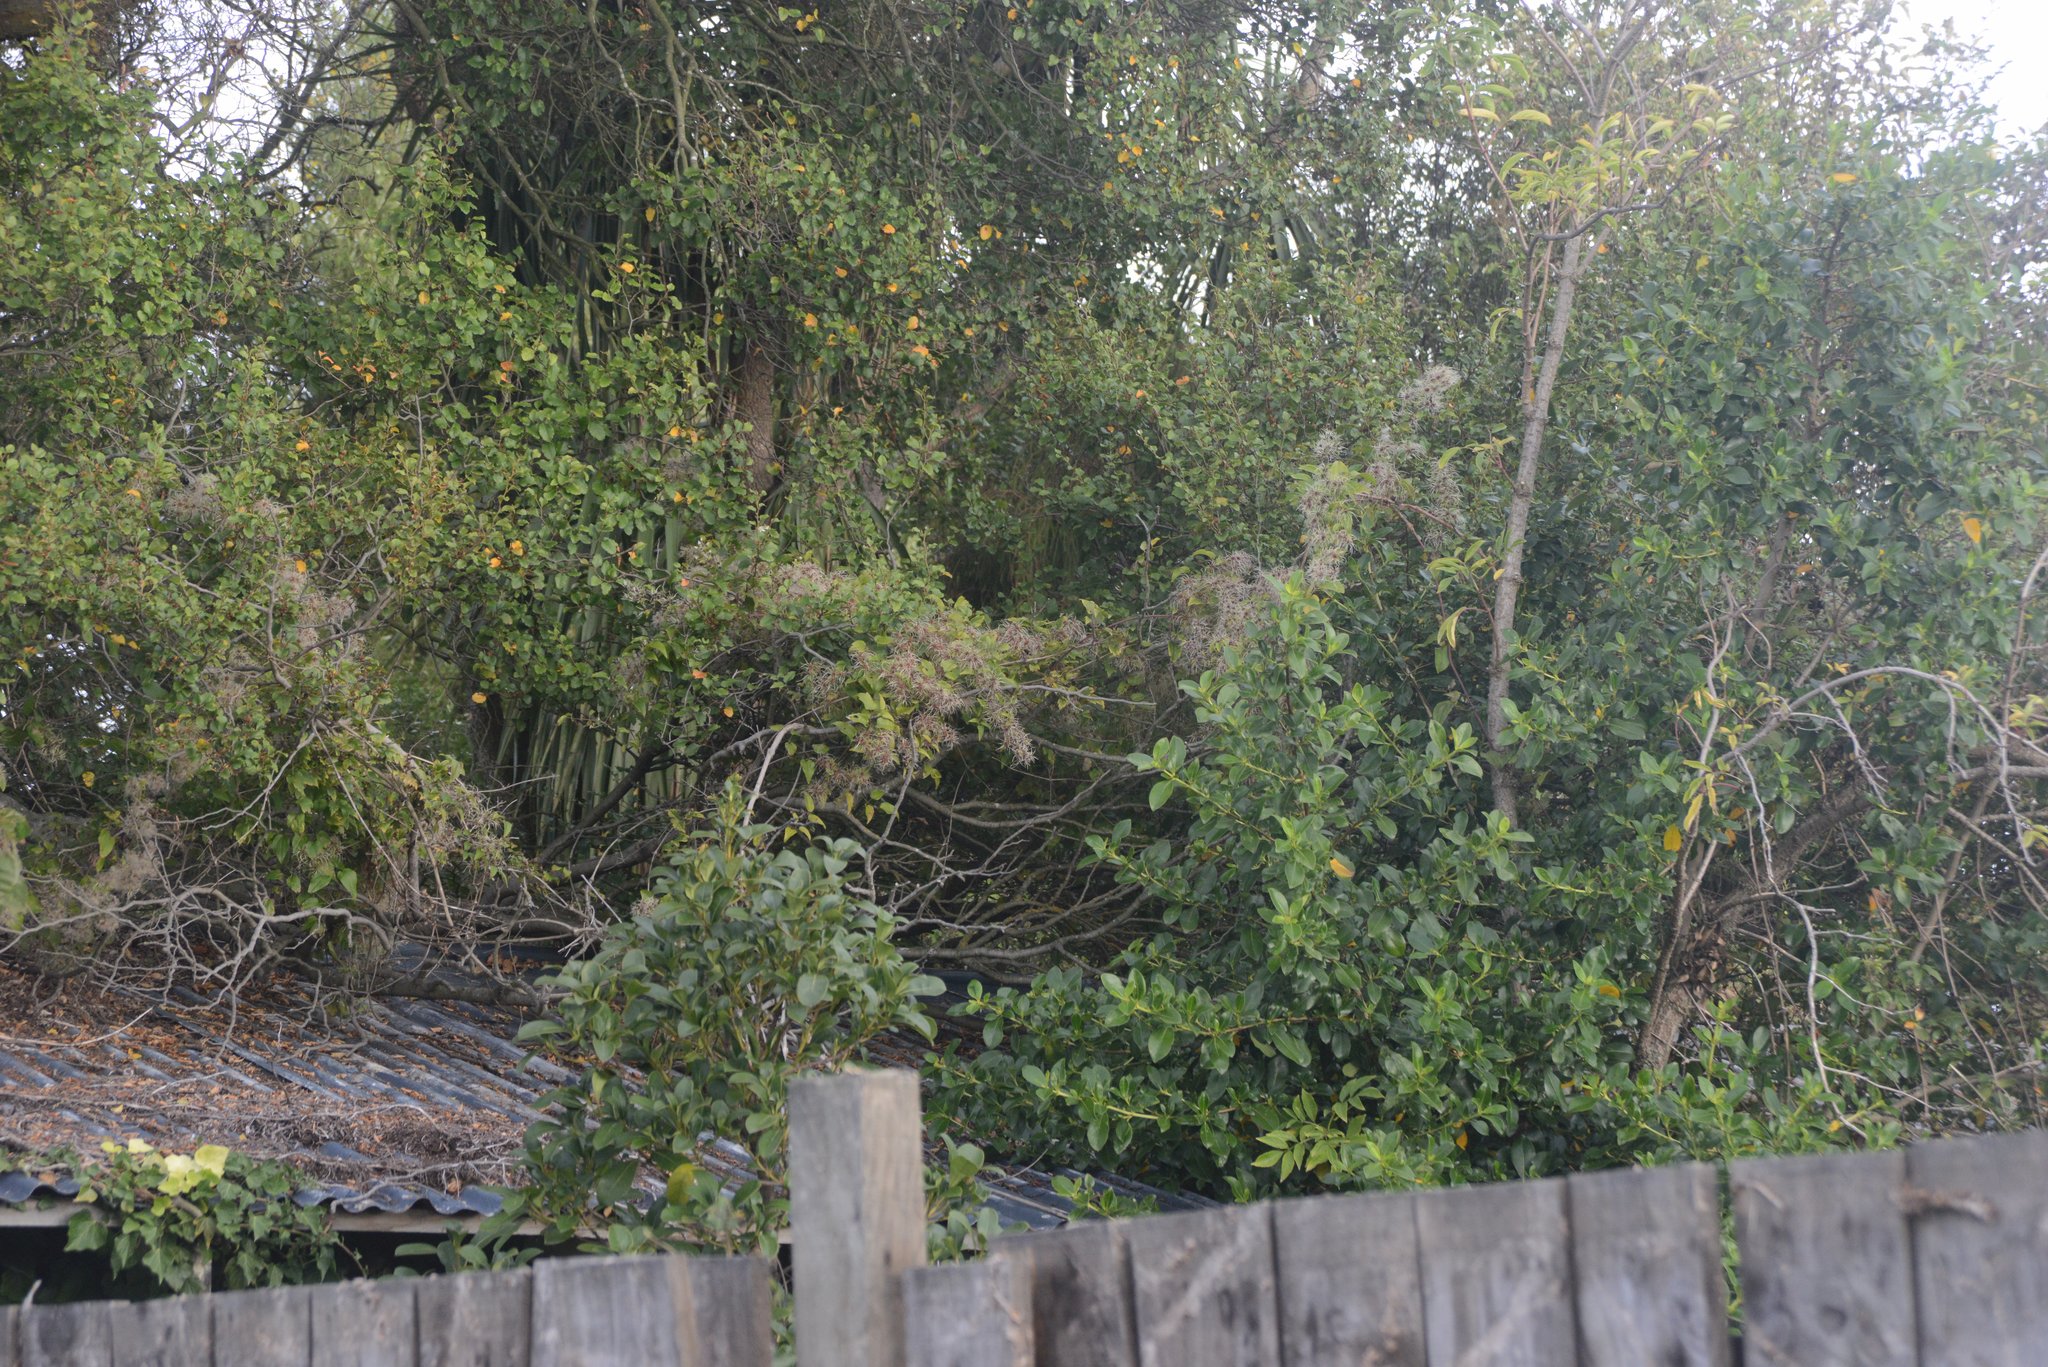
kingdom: Plantae
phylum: Tracheophyta
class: Magnoliopsida
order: Ranunculales
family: Ranunculaceae
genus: Clematis
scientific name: Clematis vitalba
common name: Evergreen clematis
